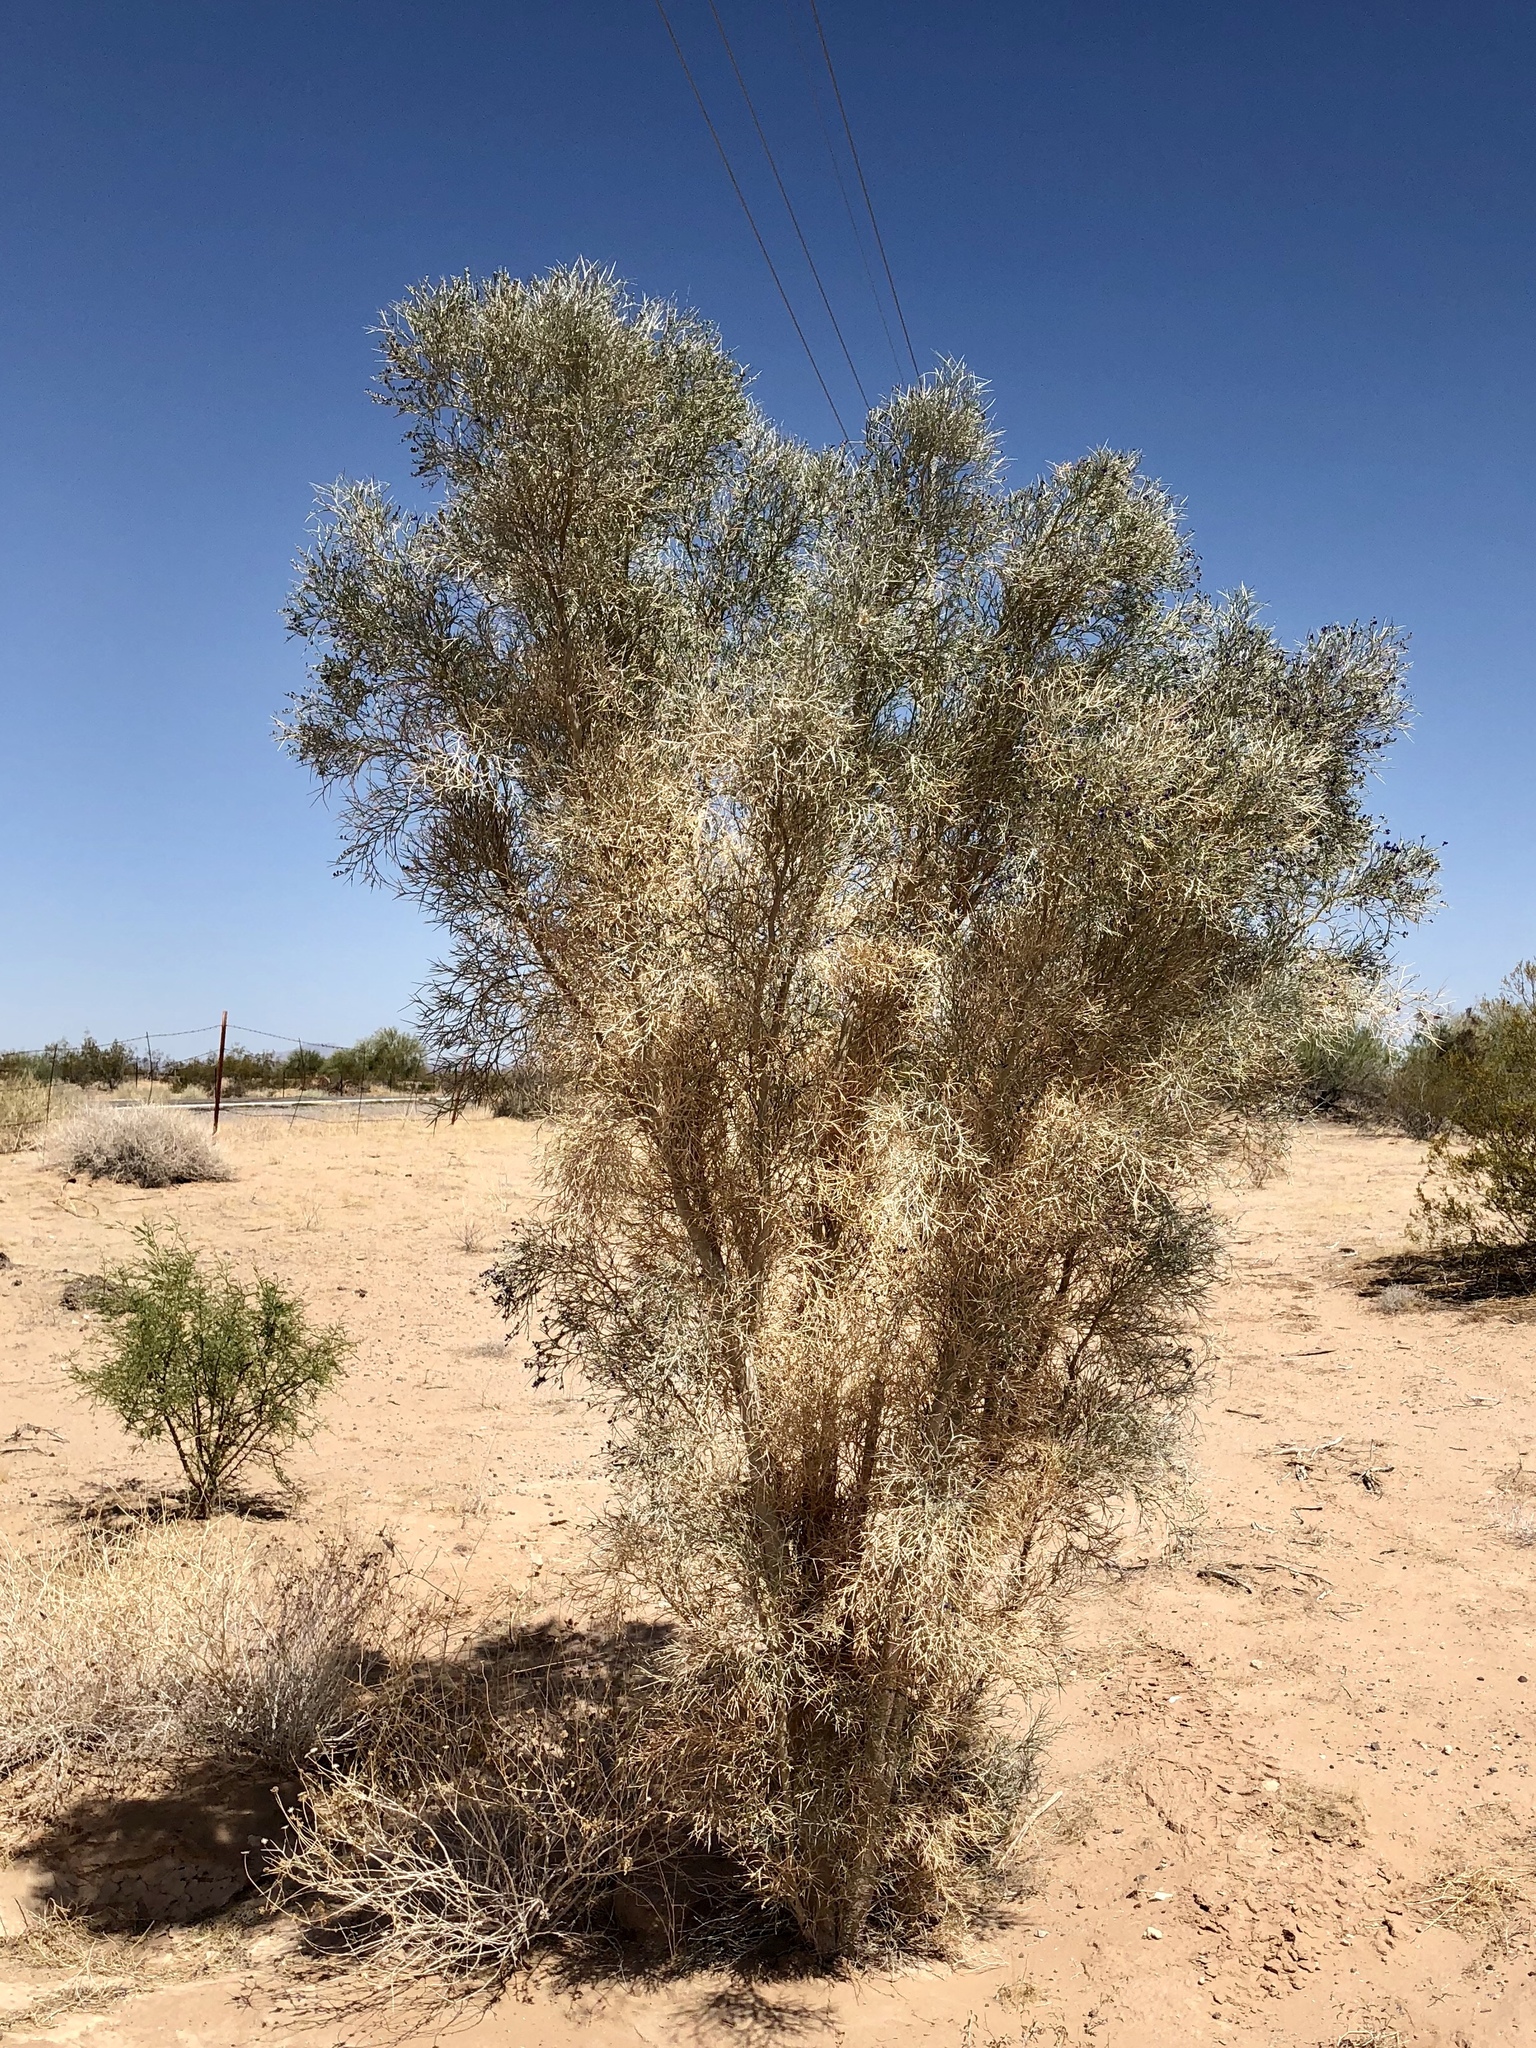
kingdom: Plantae
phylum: Tracheophyta
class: Magnoliopsida
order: Fabales
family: Fabaceae
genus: Psorothamnus
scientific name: Psorothamnus spinosus
